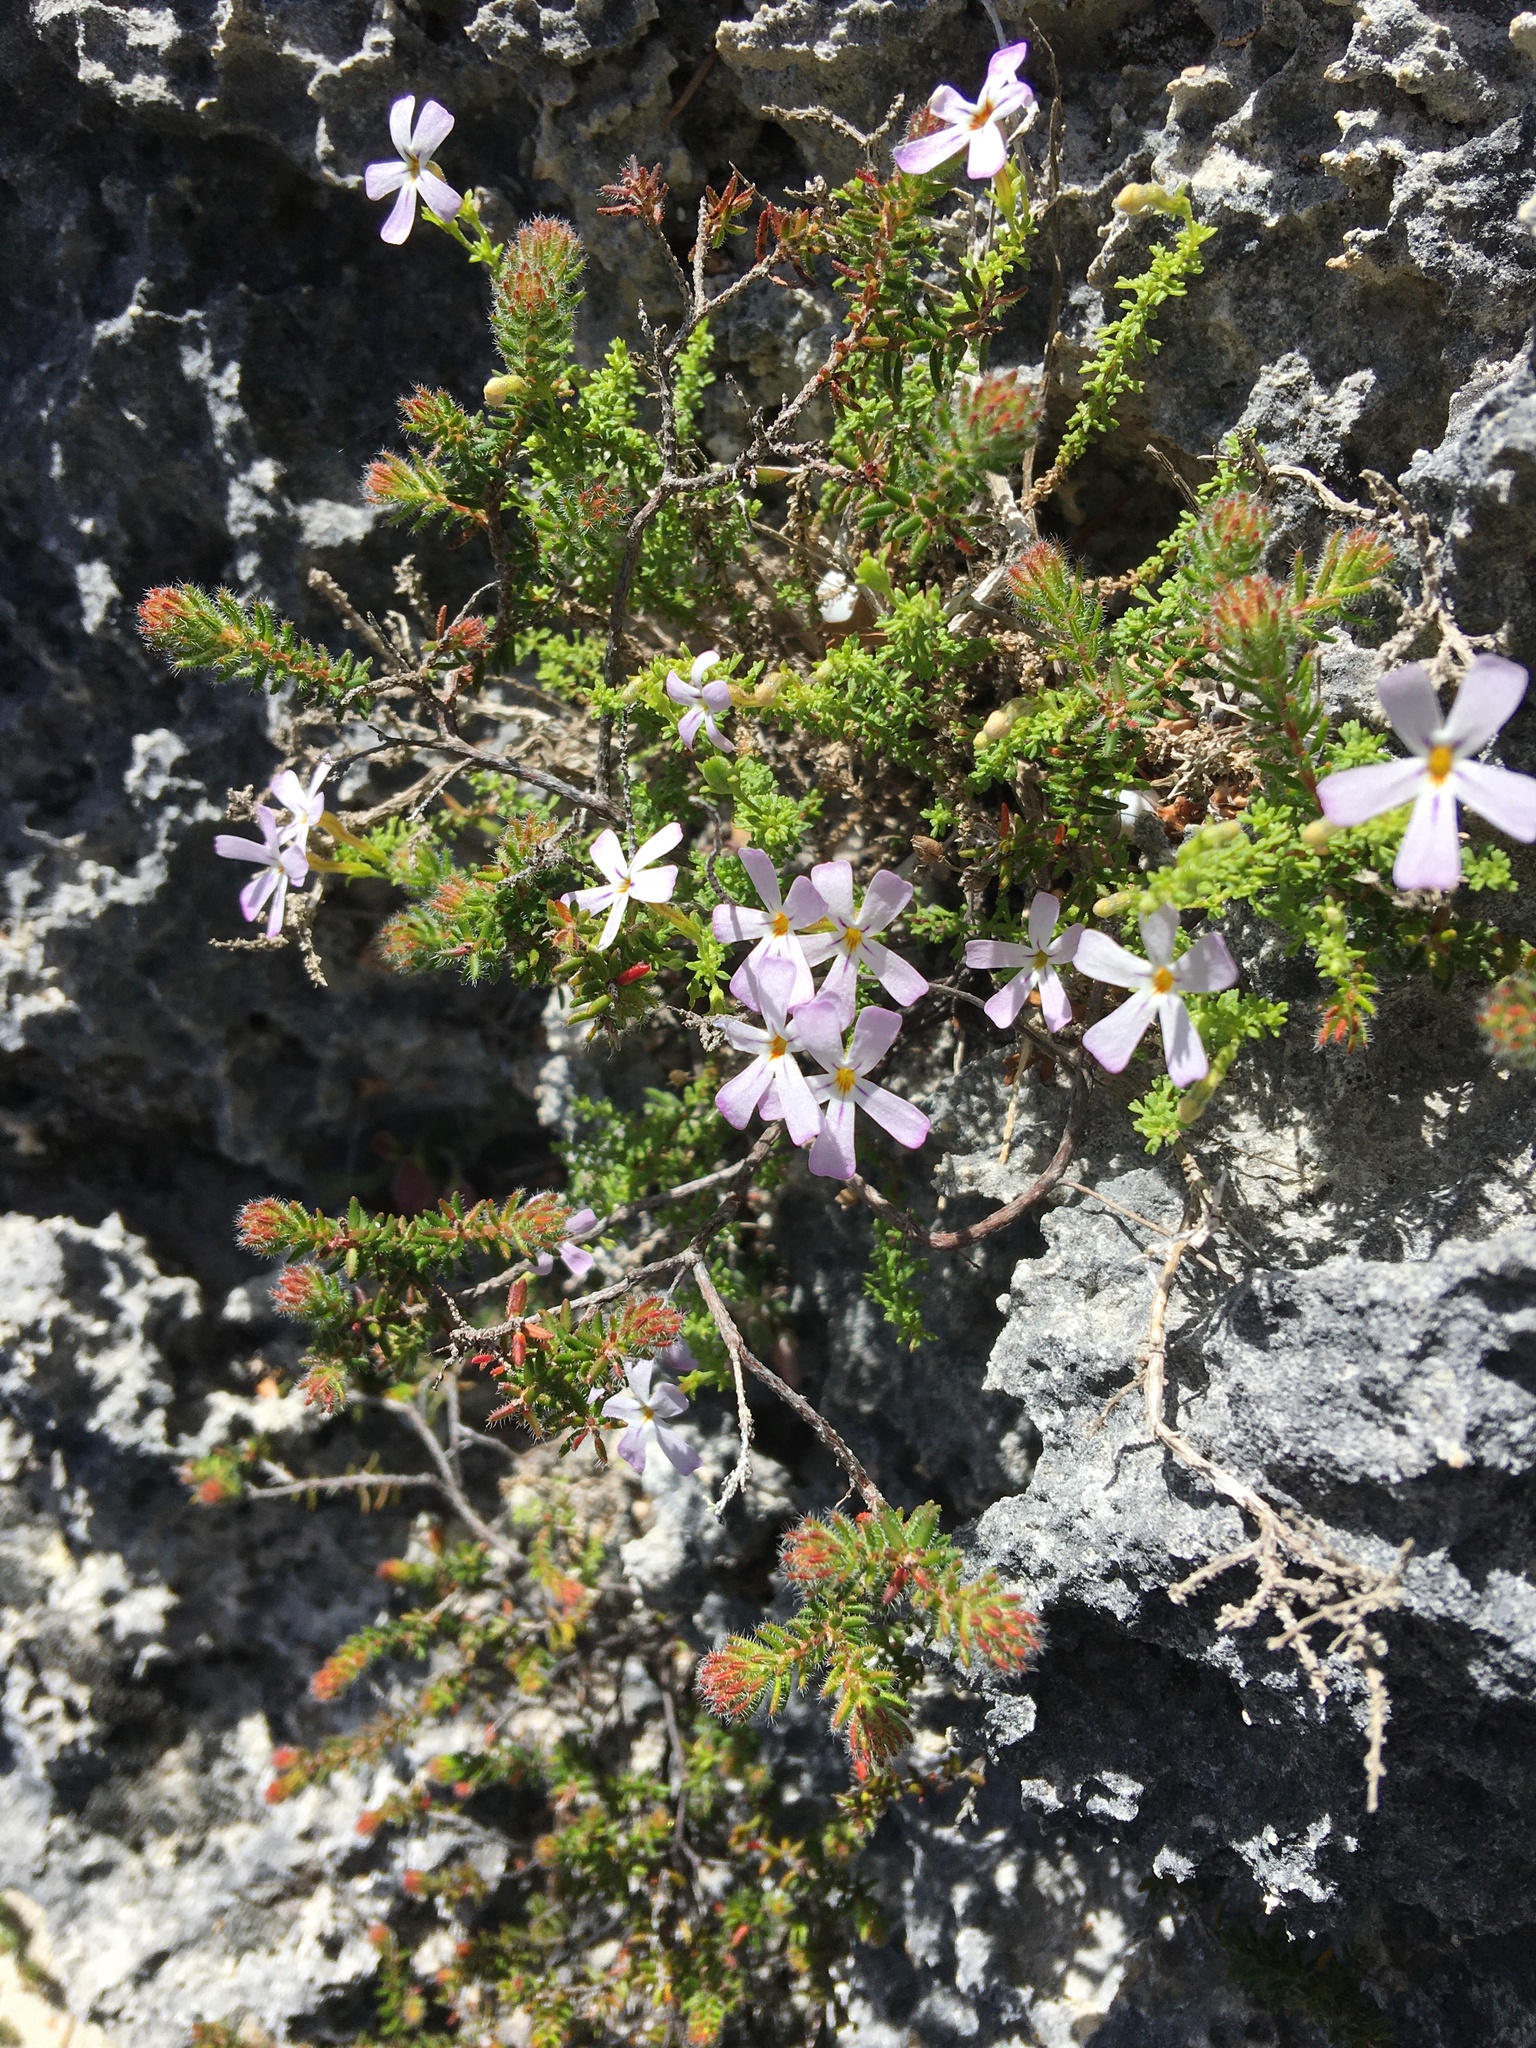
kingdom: Plantae
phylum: Tracheophyta
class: Magnoliopsida
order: Lamiales
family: Scrophulariaceae
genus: Jamesbrittenia
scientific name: Jamesbrittenia calciphila
